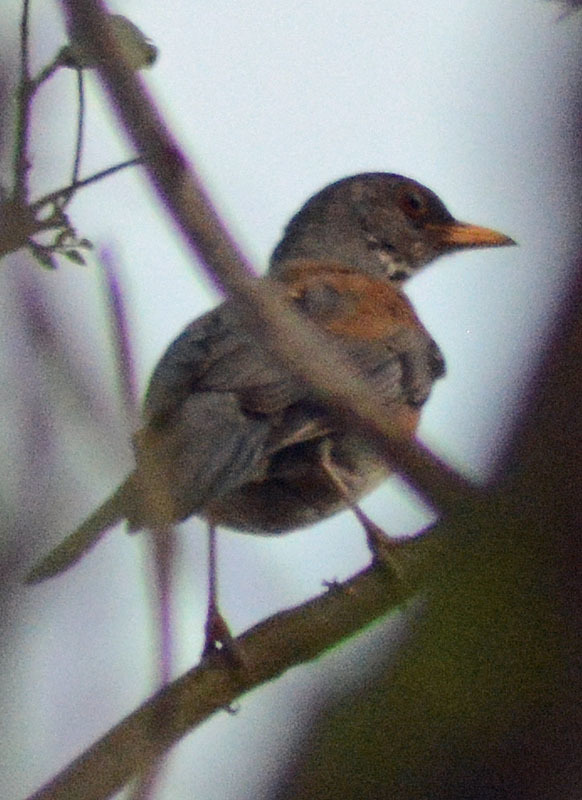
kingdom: Animalia
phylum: Chordata
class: Aves
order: Passeriformes
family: Turdidae
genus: Turdus
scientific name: Turdus rufopalliatus
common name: Rufous-backed robin
